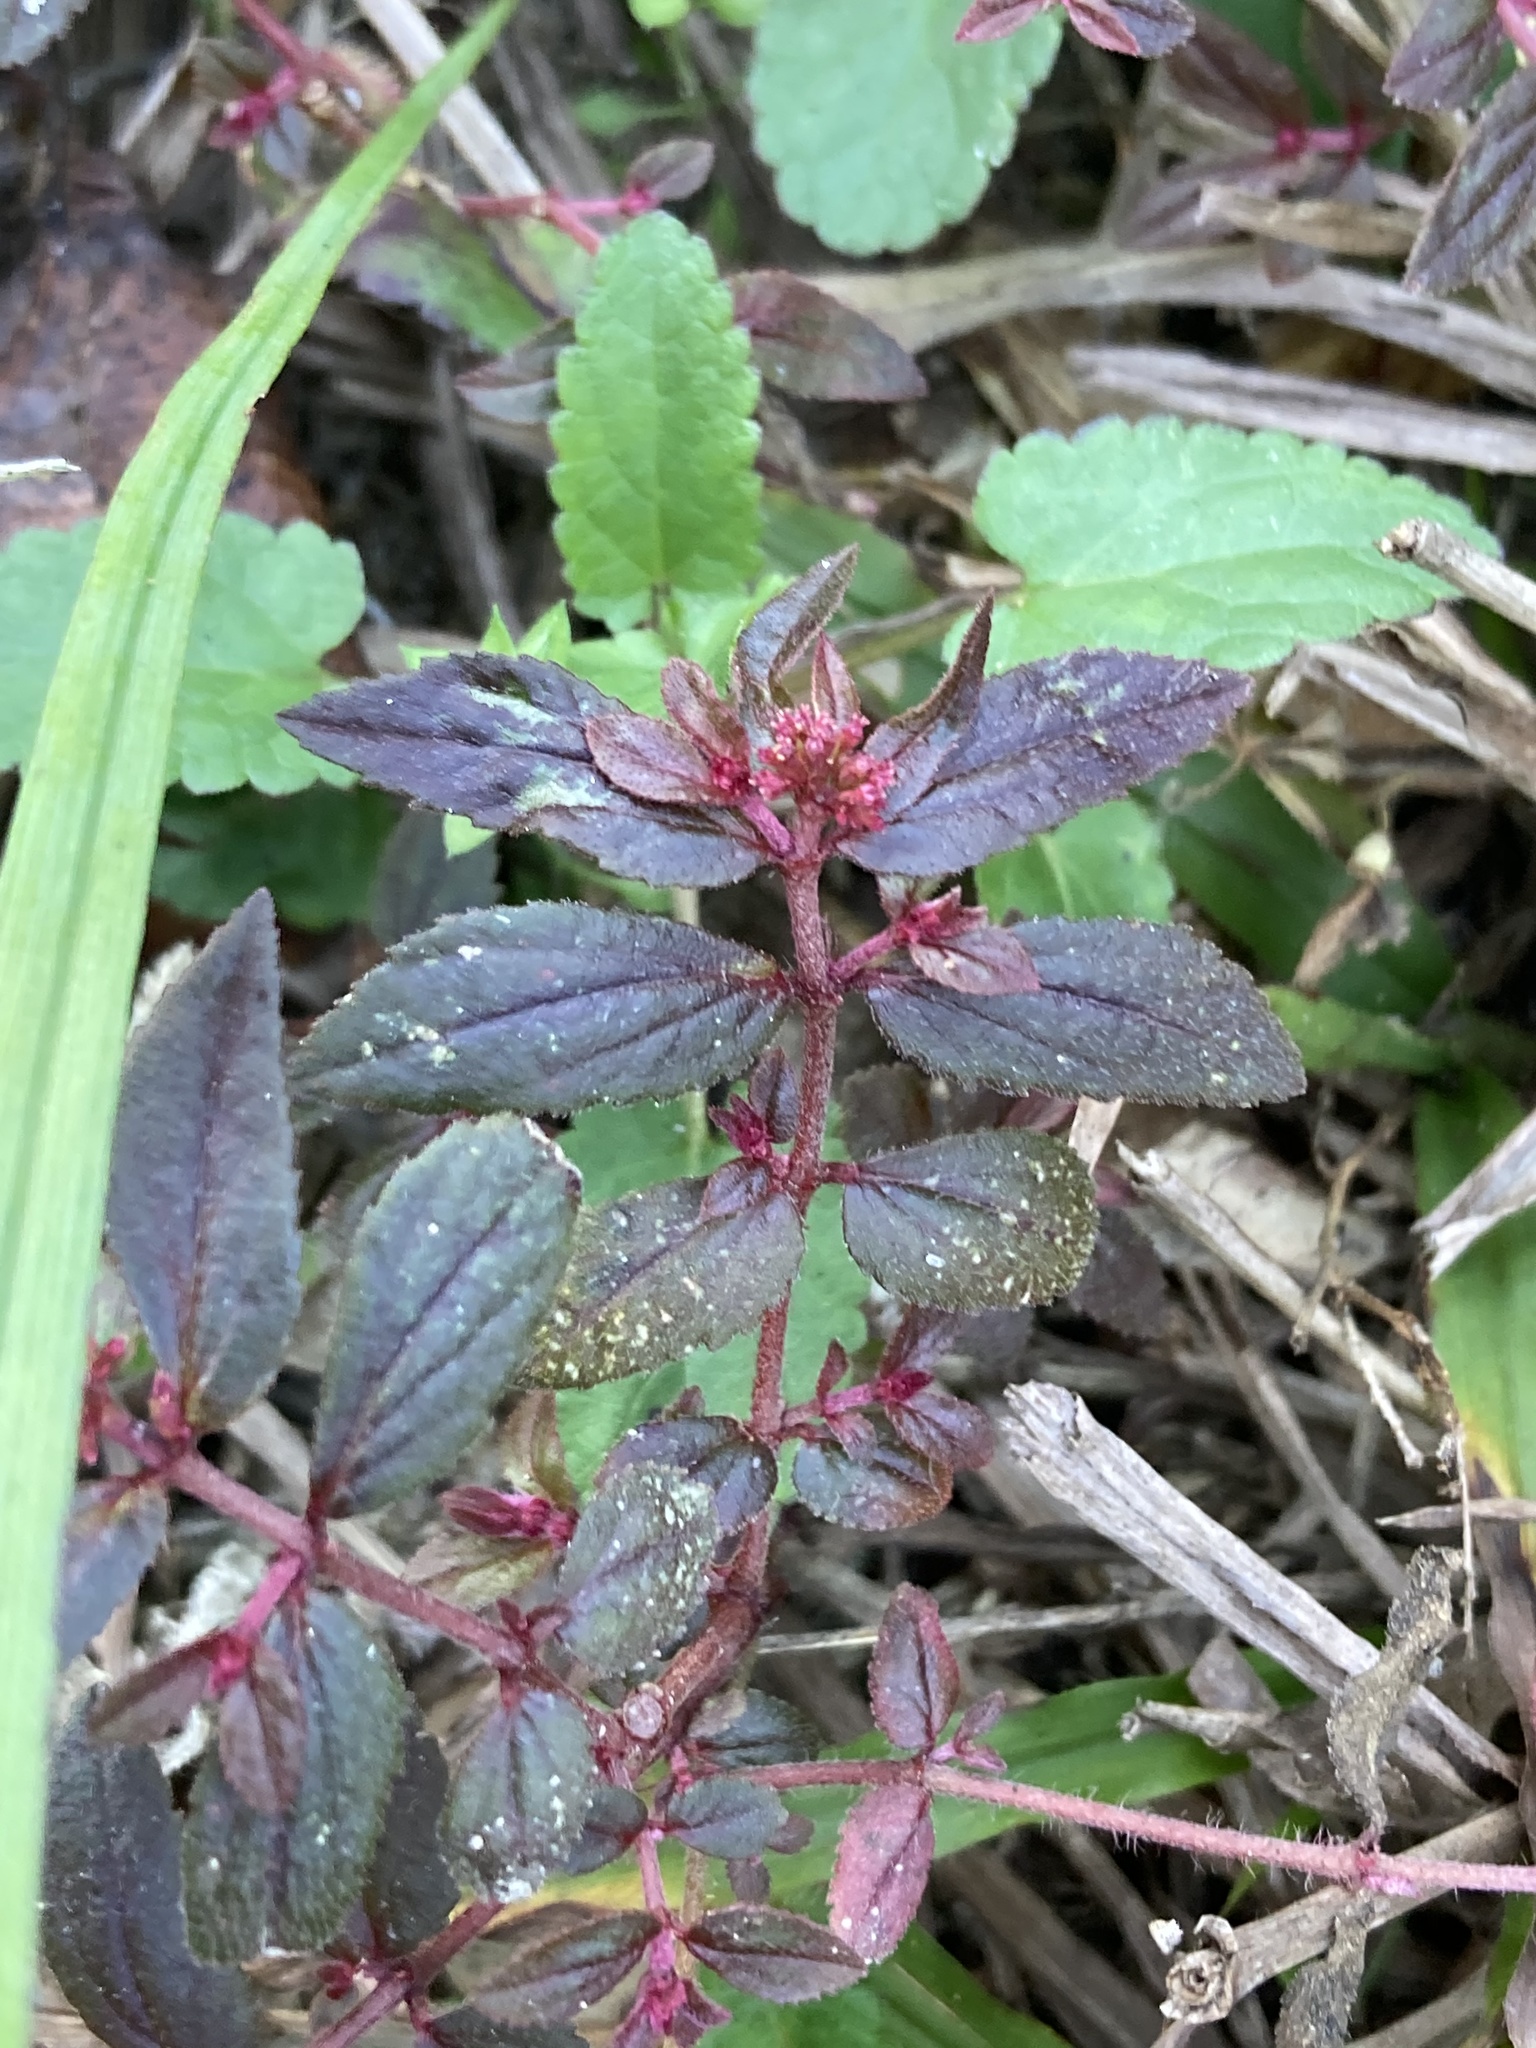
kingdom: Plantae
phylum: Tracheophyta
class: Magnoliopsida
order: Malpighiales
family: Euphorbiaceae
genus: Euphorbia
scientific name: Euphorbia hirta
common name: Pillpod sandmat
